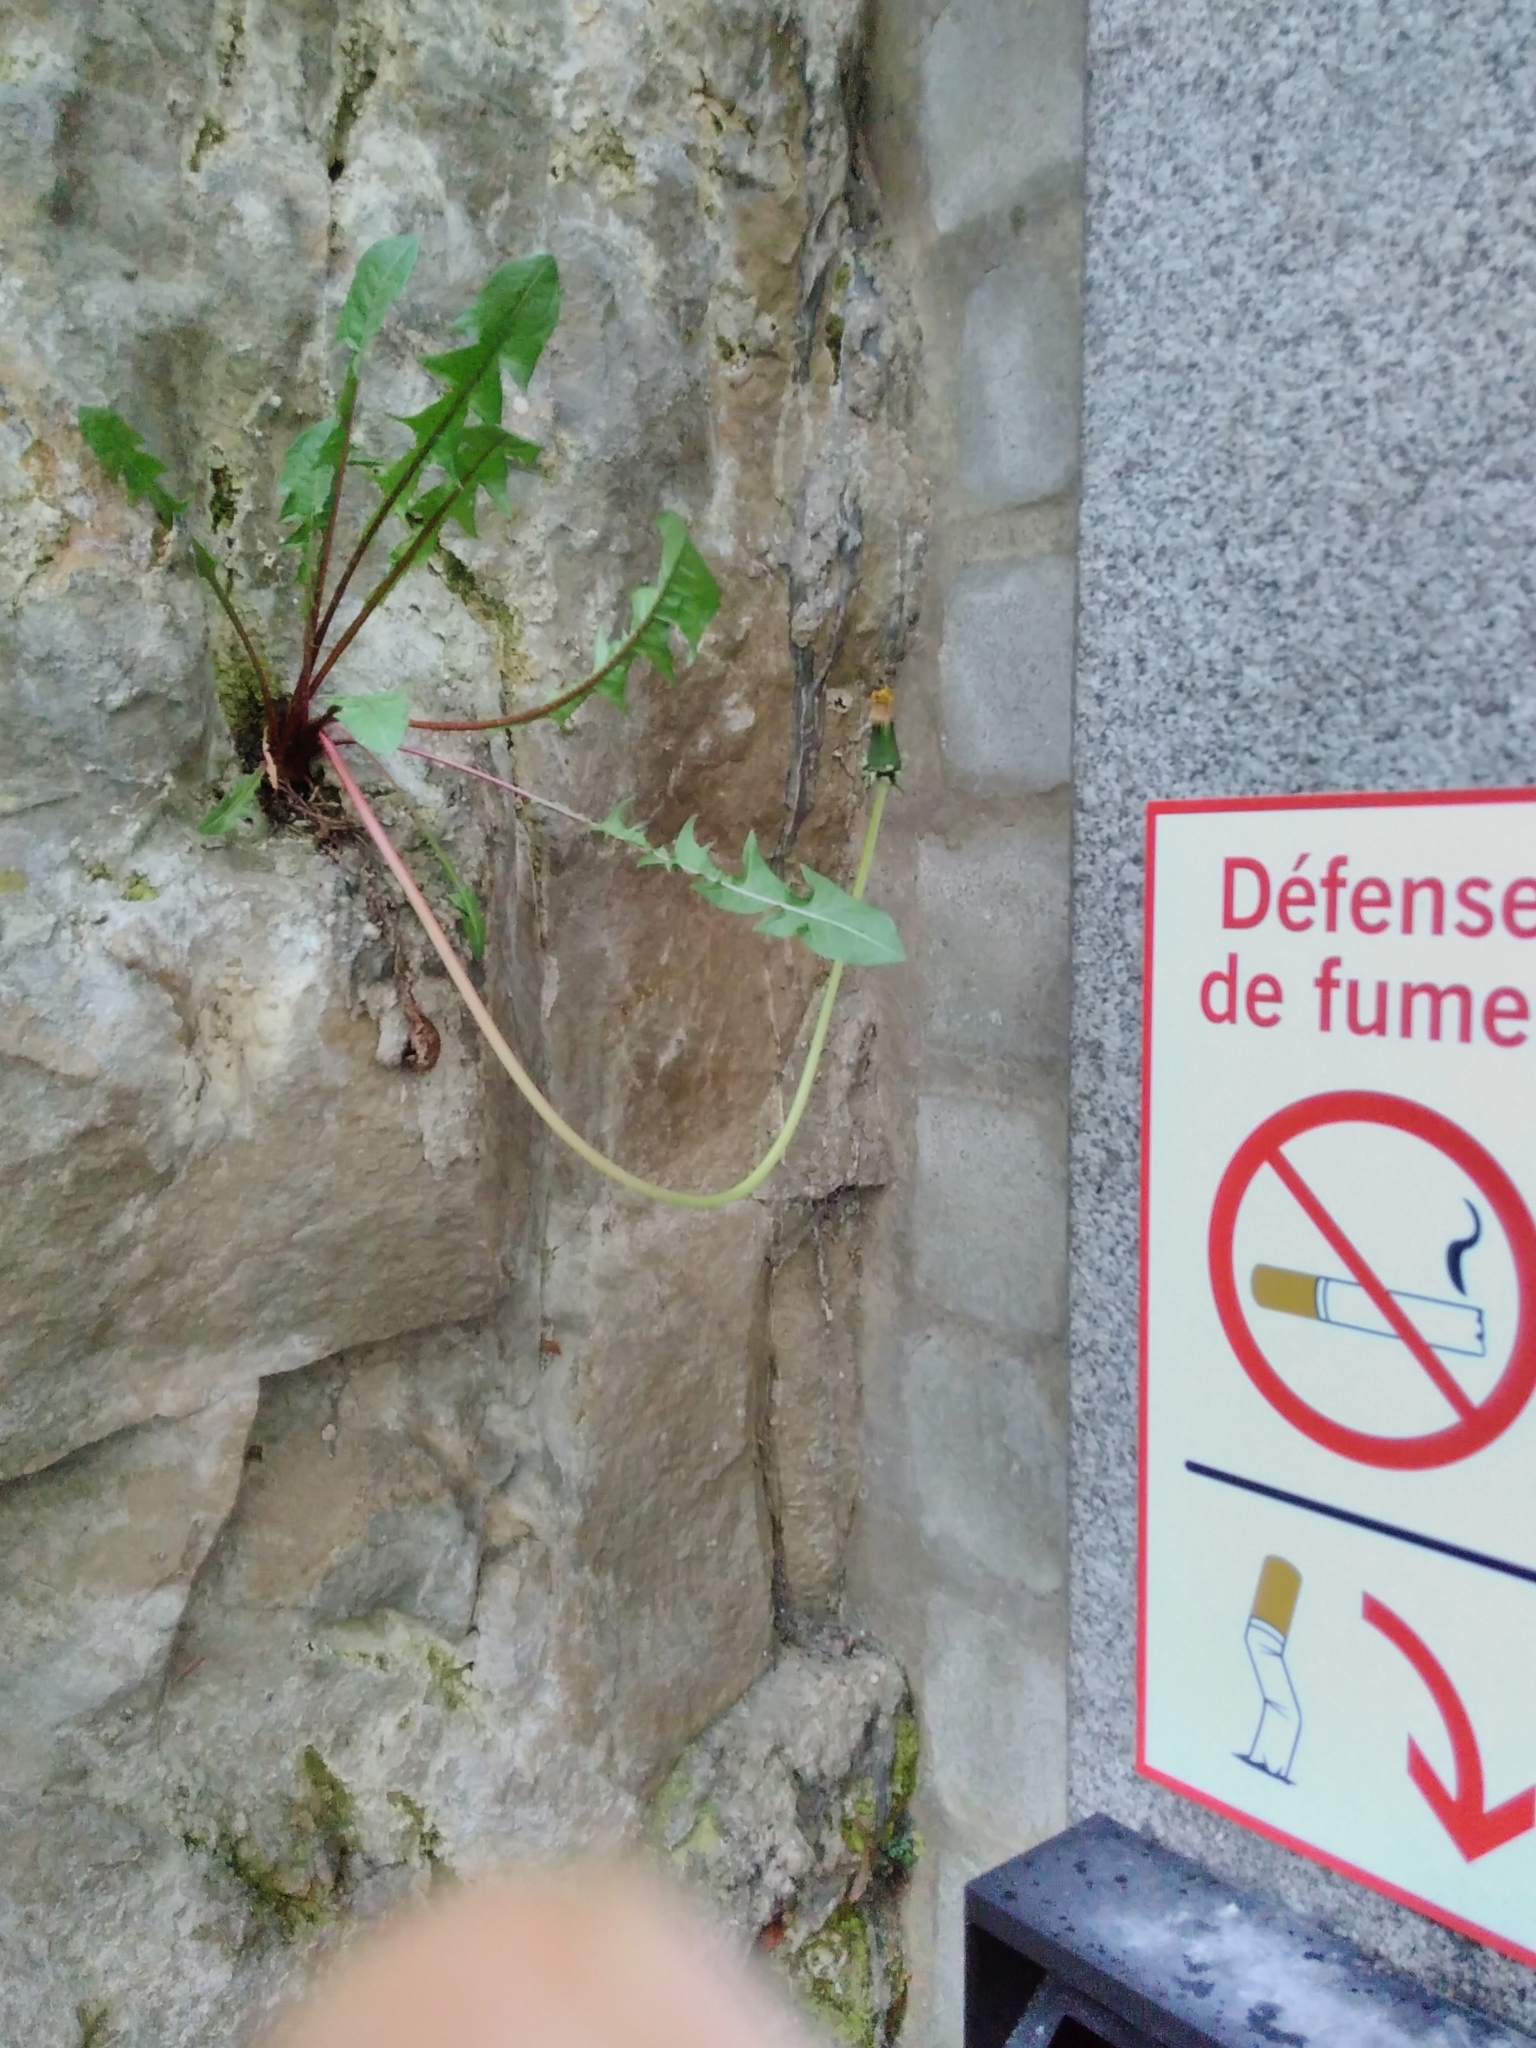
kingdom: Plantae
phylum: Tracheophyta
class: Magnoliopsida
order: Asterales
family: Asteraceae
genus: Taraxacum
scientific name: Taraxacum officinale
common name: Common dandelion
